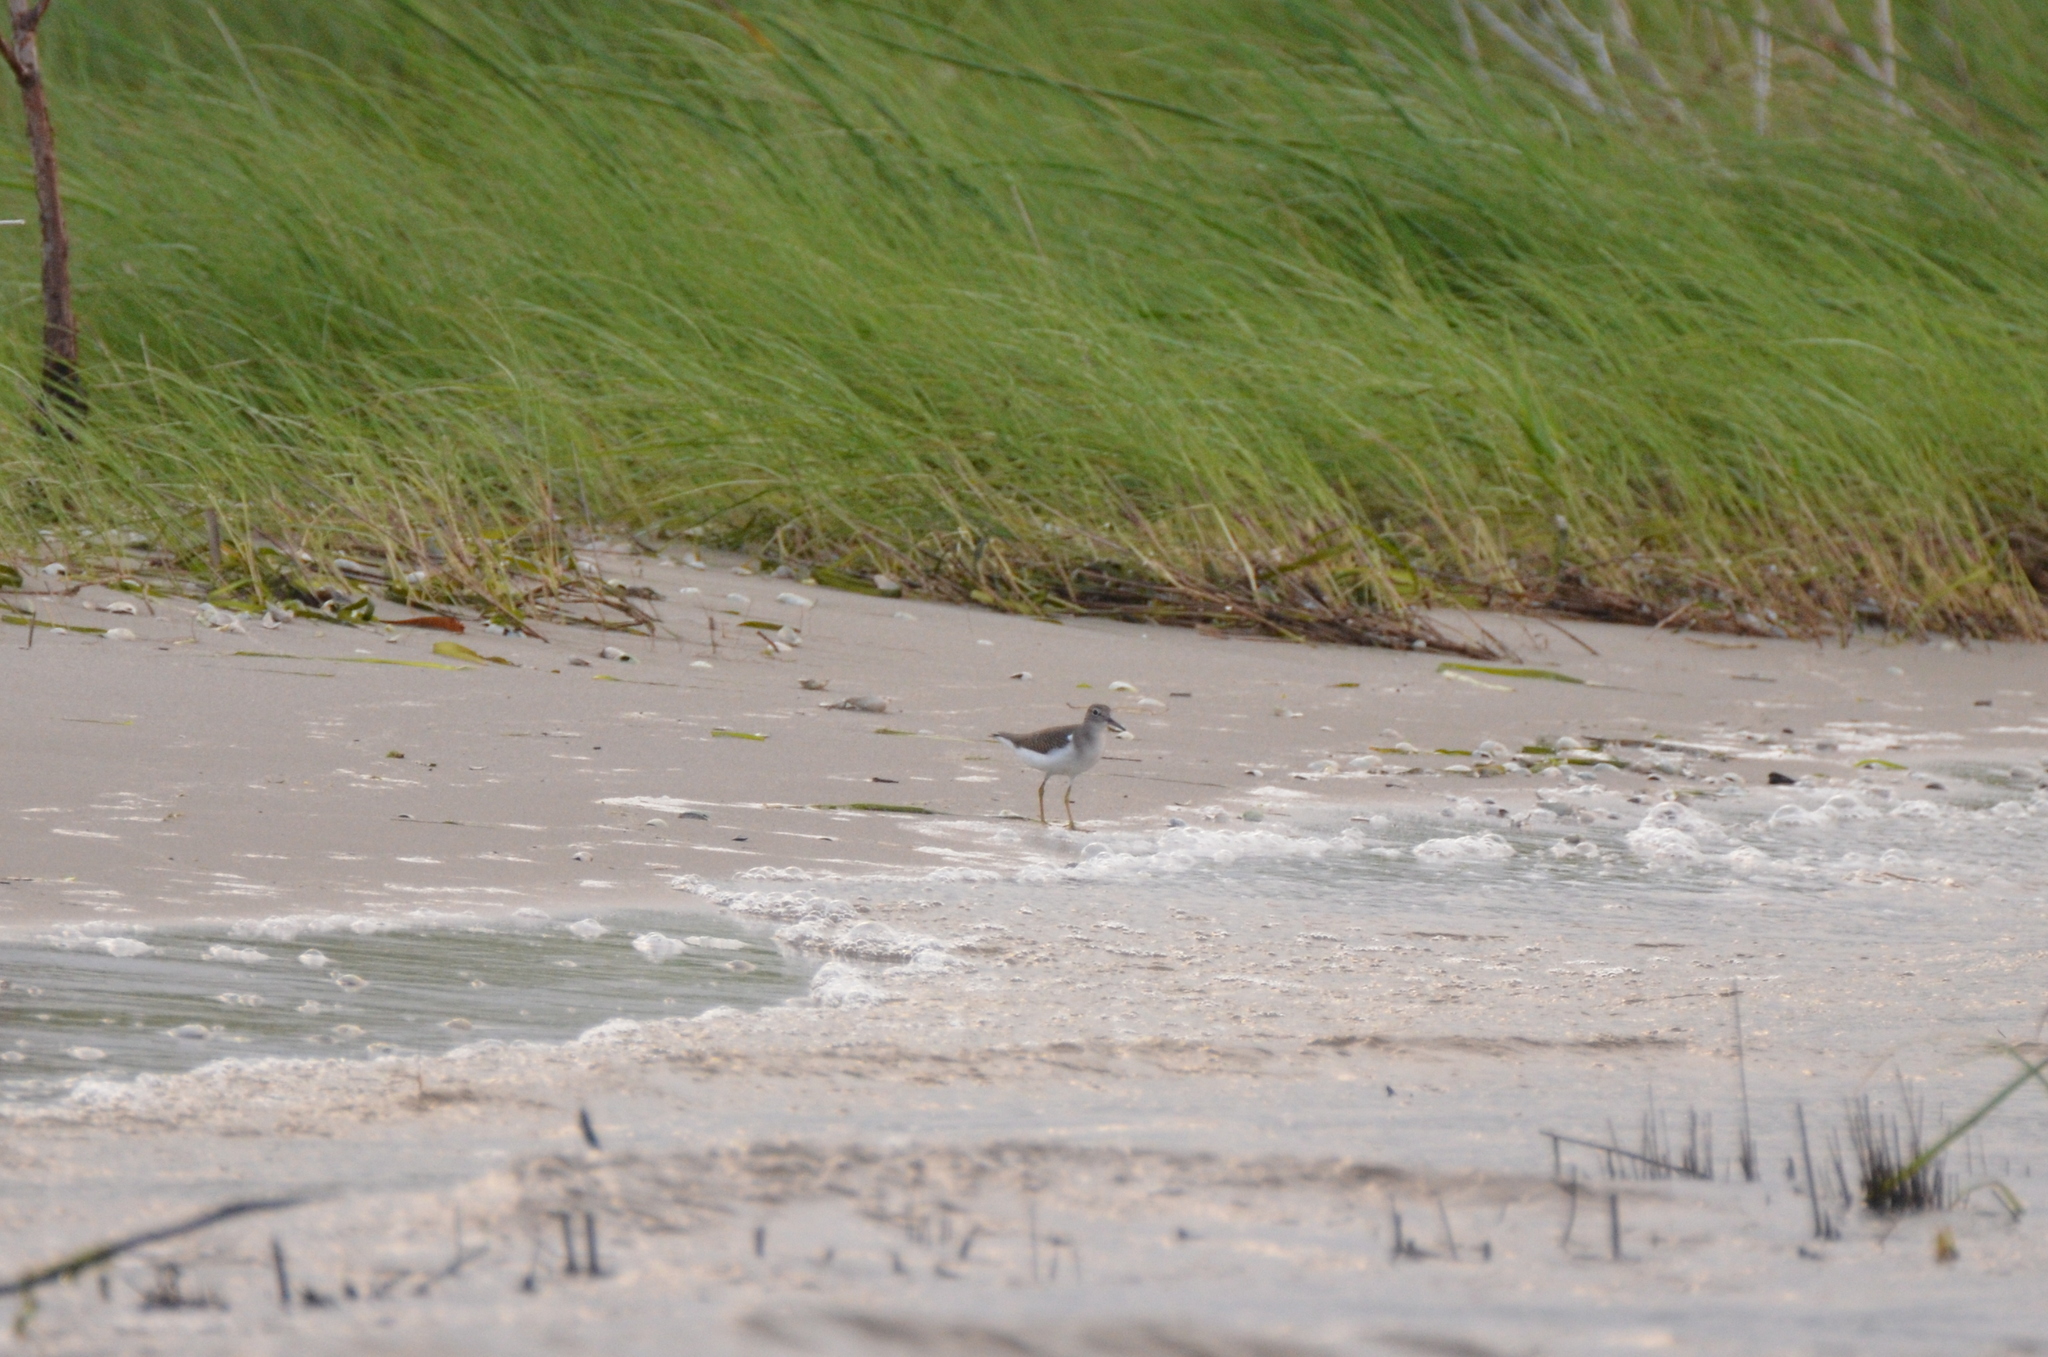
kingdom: Animalia
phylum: Chordata
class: Aves
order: Charadriiformes
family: Scolopacidae
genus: Actitis
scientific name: Actitis macularius
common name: Spotted sandpiper
